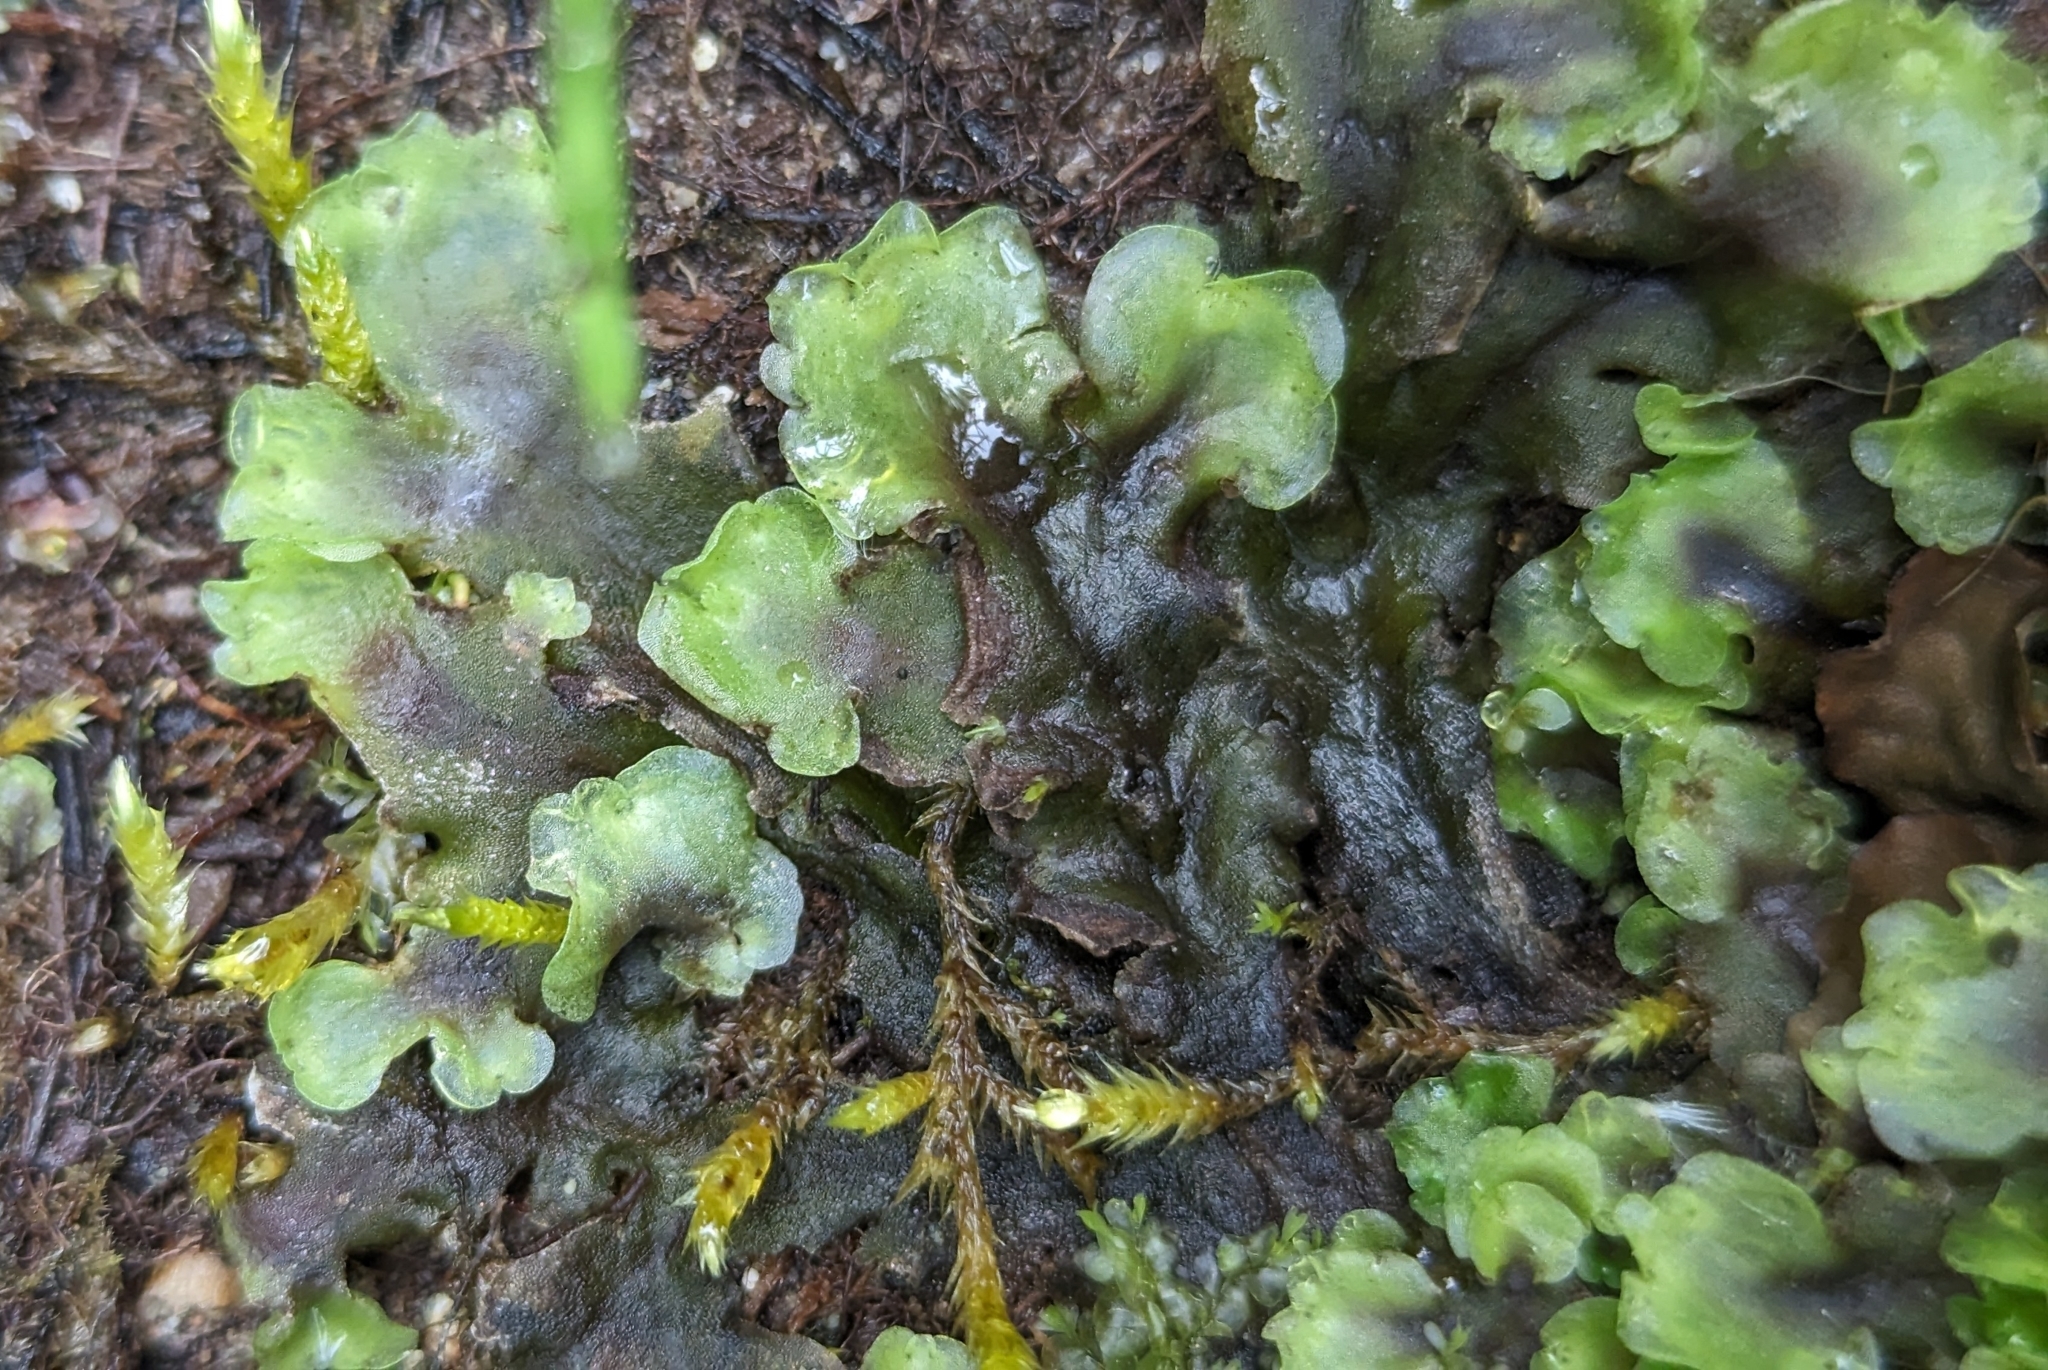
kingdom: Plantae
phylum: Marchantiophyta
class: Jungermanniopsida
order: Pelliales
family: Pelliaceae
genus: Pellia
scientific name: Pellia neesiana
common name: Nees  pellia
